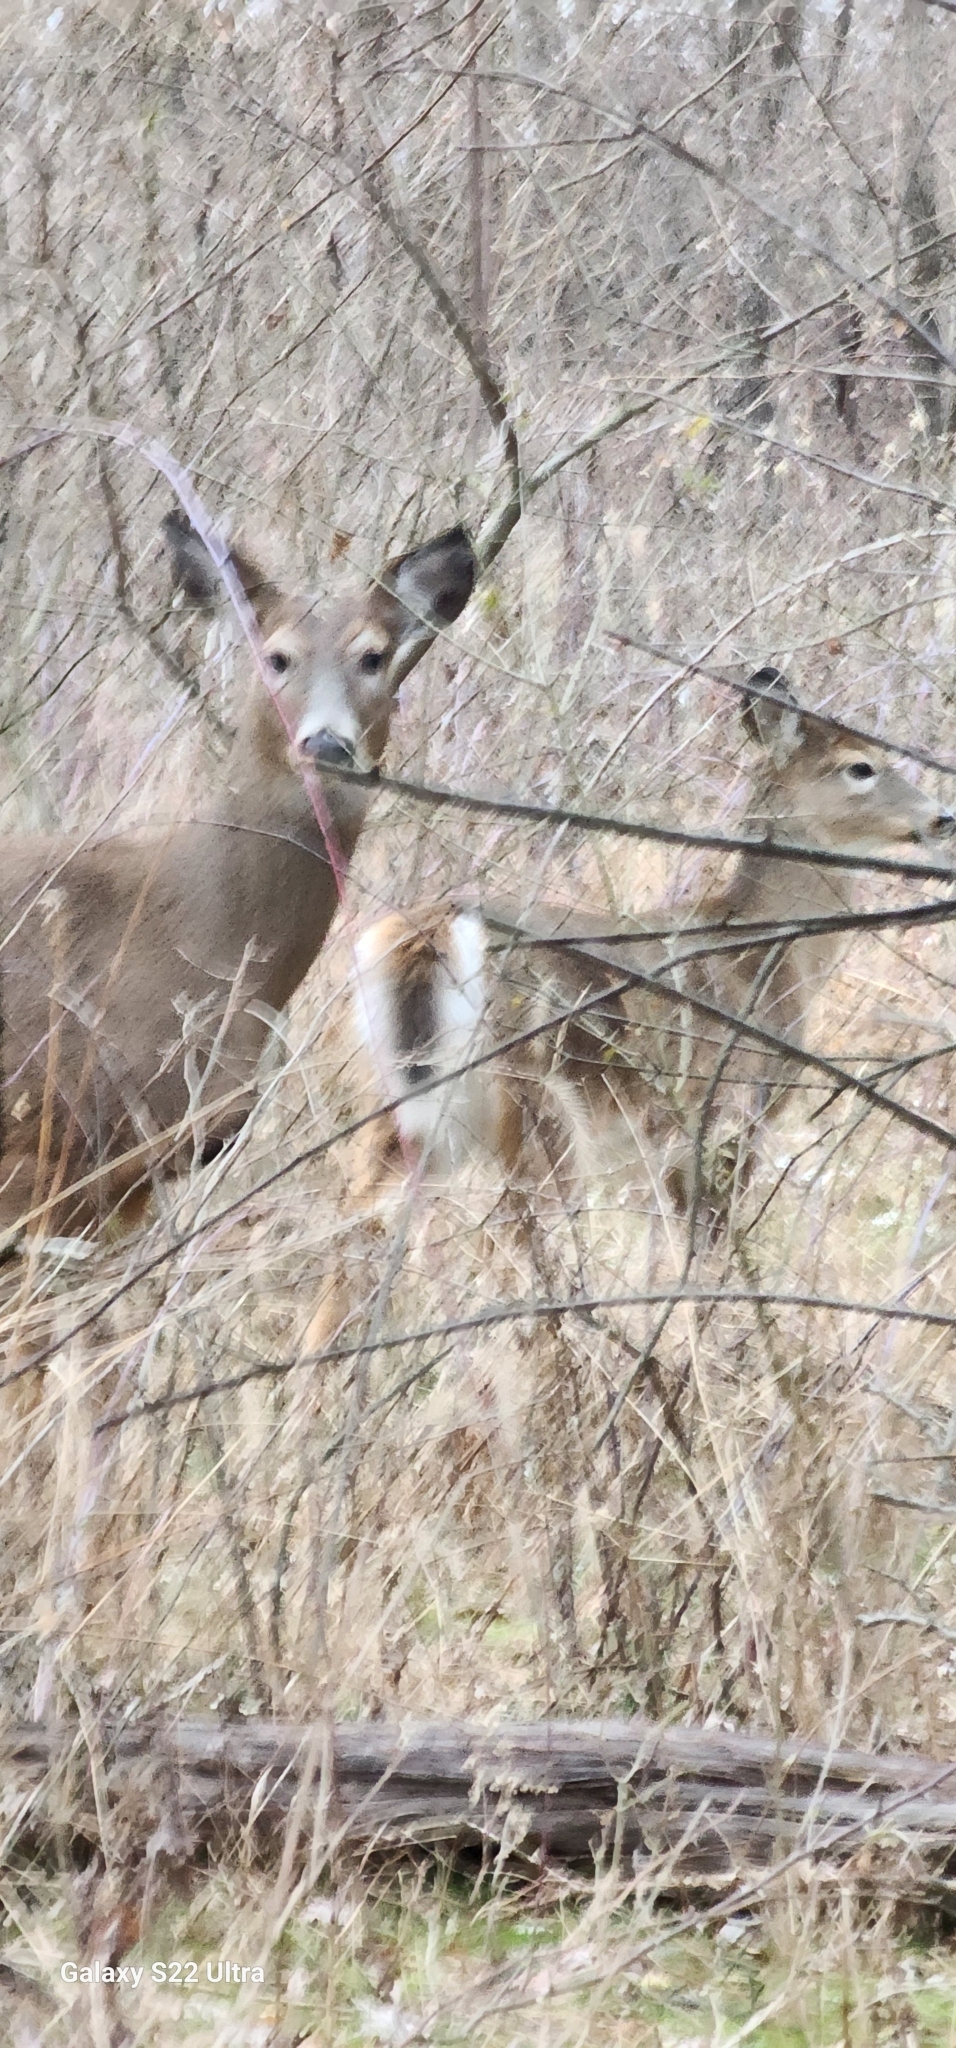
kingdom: Animalia
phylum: Chordata
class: Mammalia
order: Artiodactyla
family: Cervidae
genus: Odocoileus
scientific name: Odocoileus virginianus
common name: White-tailed deer
